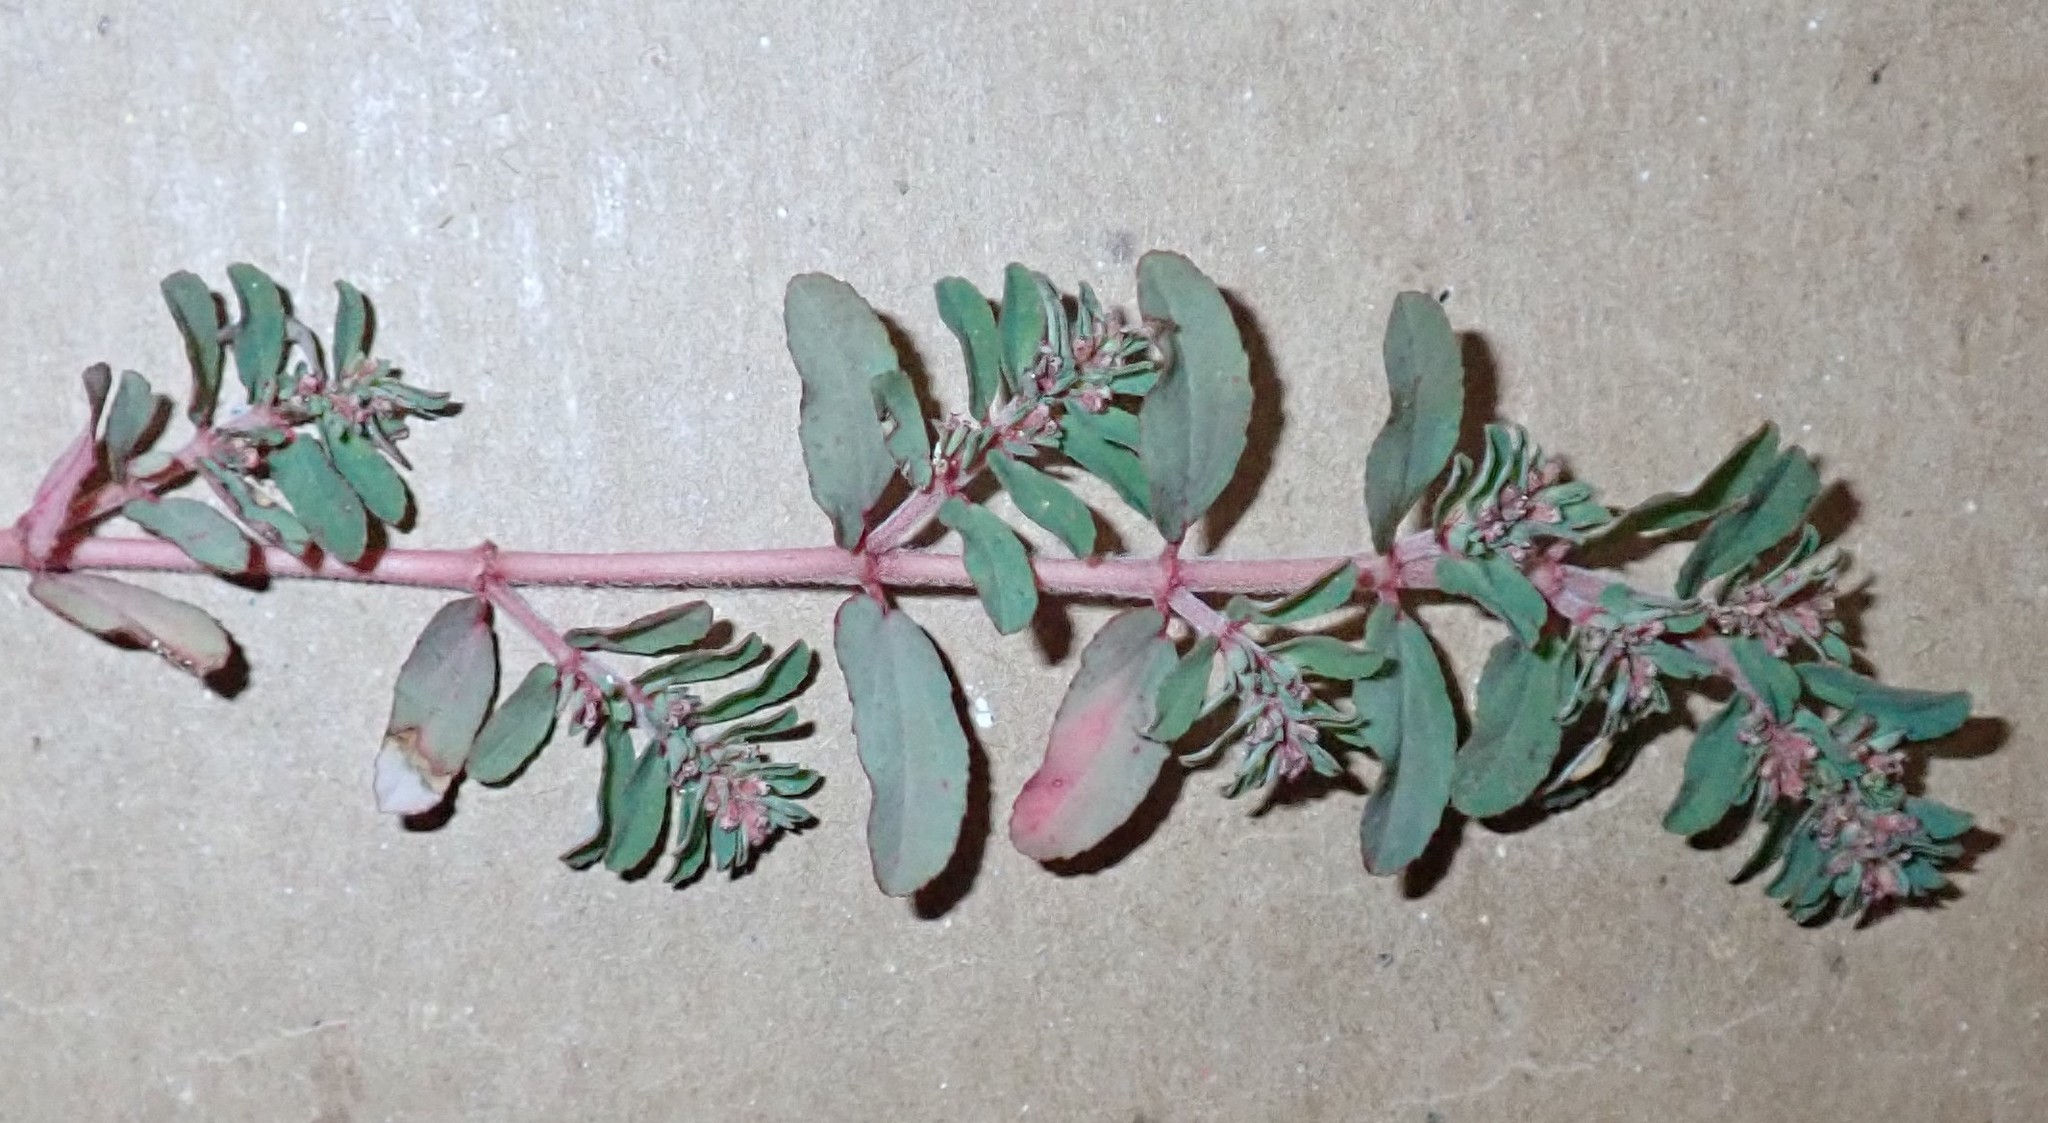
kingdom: Plantae
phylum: Tracheophyta
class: Magnoliopsida
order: Malpighiales
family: Euphorbiaceae
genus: Euphorbia
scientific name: Euphorbia maculata
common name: Spotted spurge
